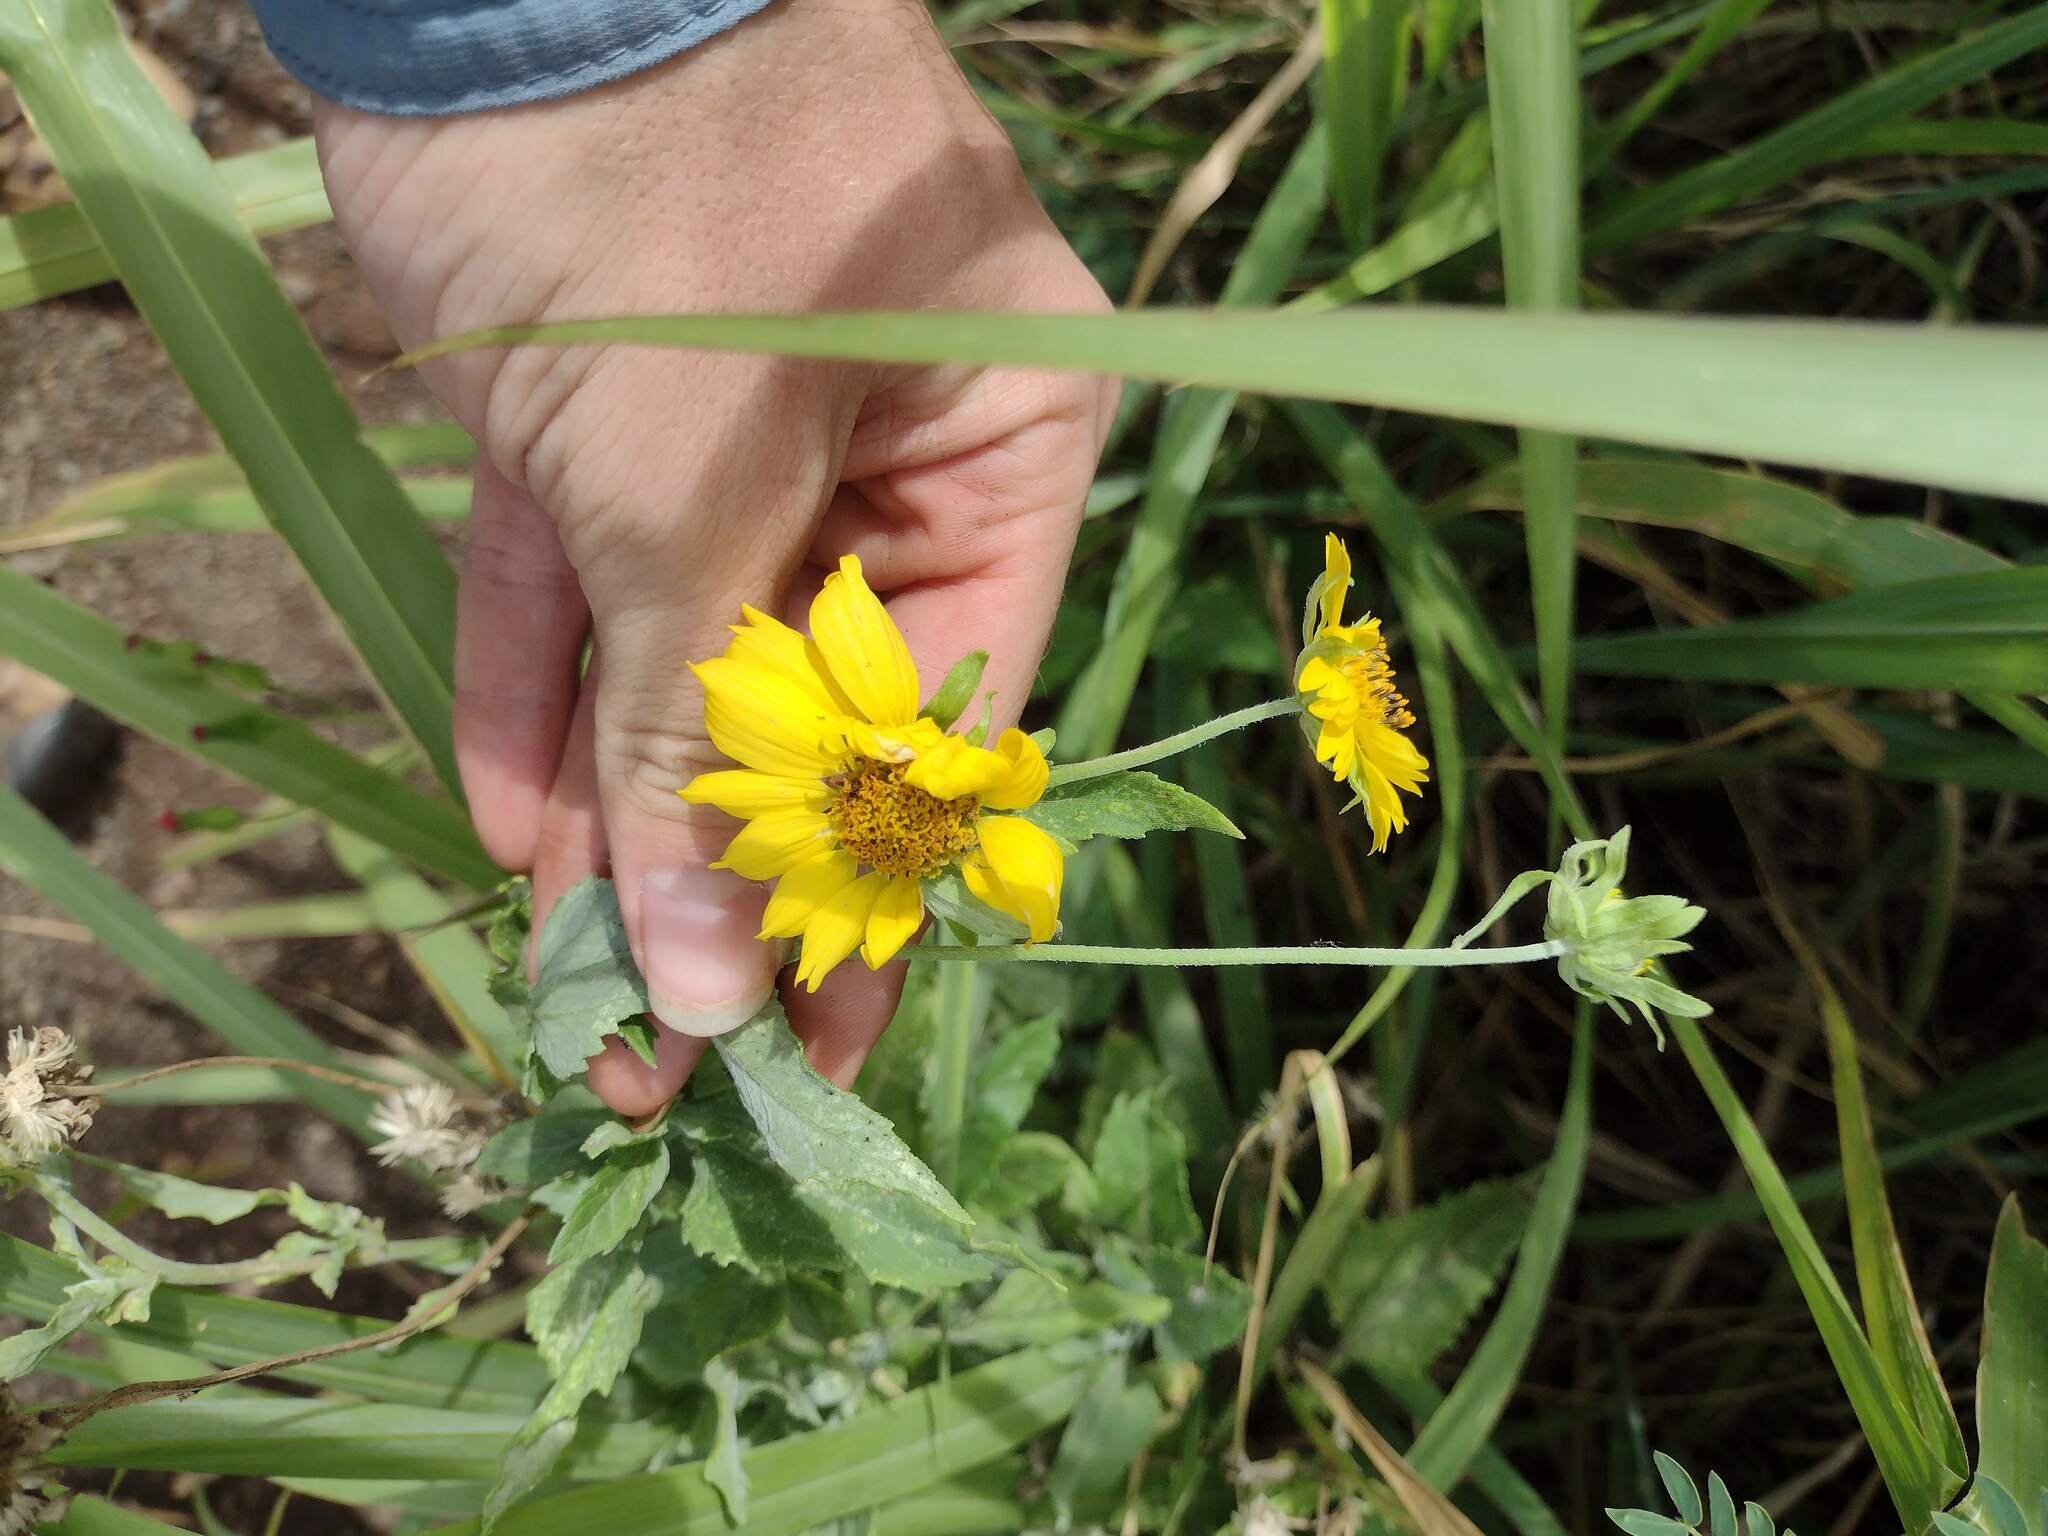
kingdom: Plantae
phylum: Tracheophyta
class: Magnoliopsida
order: Asterales
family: Asteraceae
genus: Verbesina
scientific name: Verbesina encelioides
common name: Golden crownbeard
